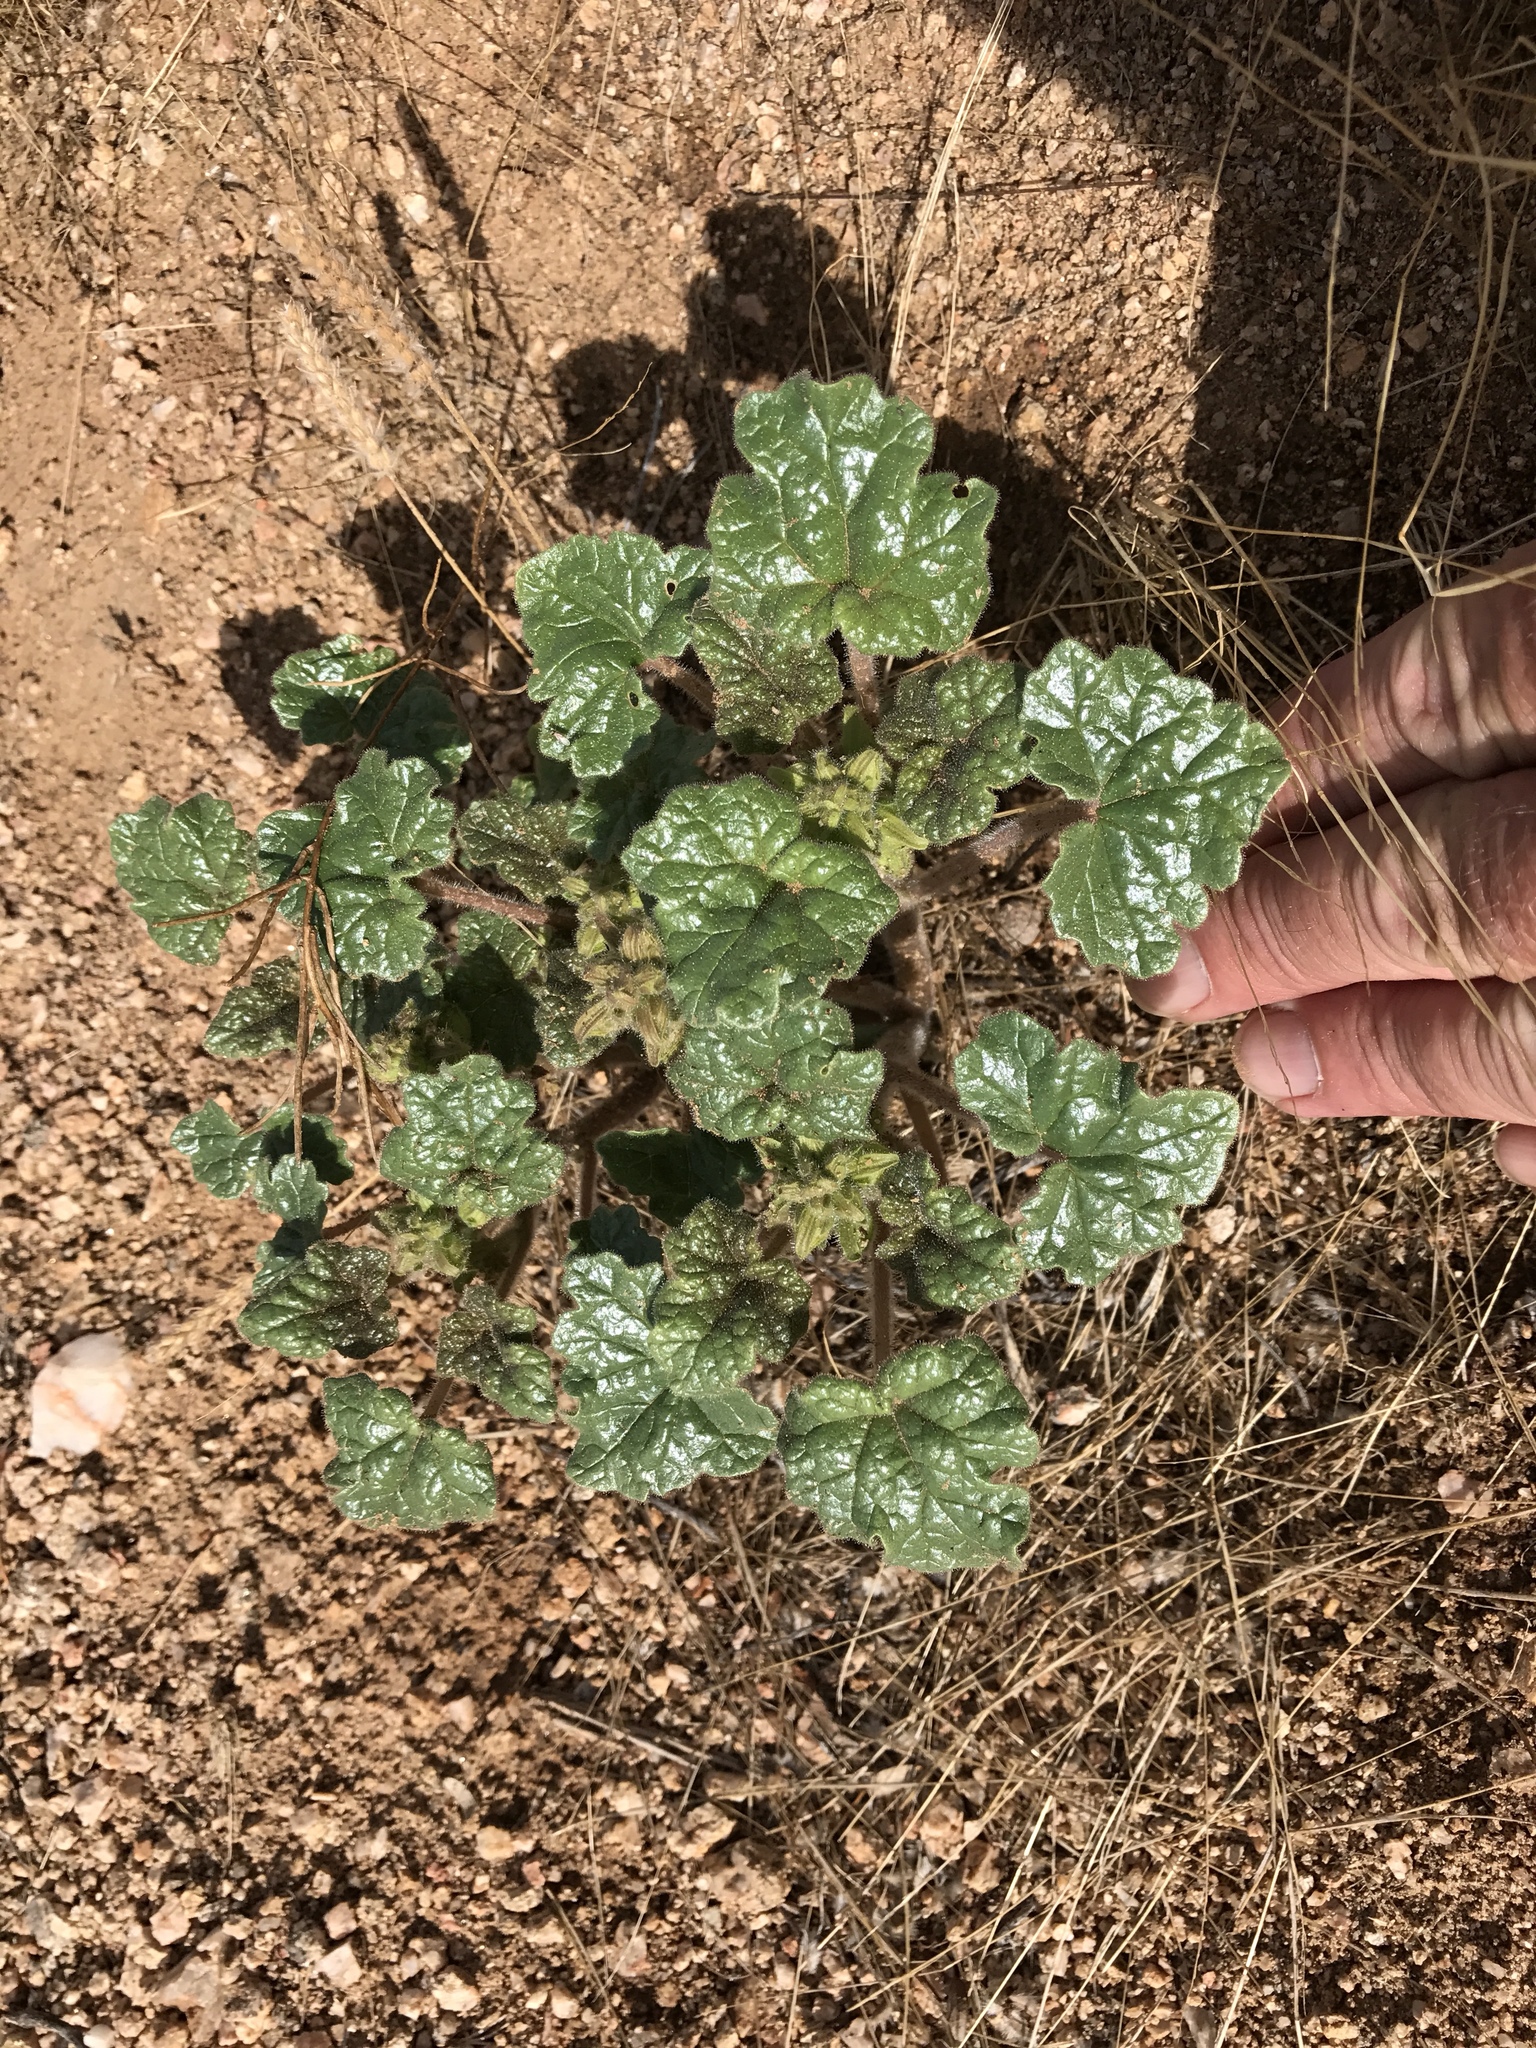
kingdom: Plantae
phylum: Tracheophyta
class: Magnoliopsida
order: Lamiales
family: Martyniaceae
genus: Proboscidea
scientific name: Proboscidea althaeifolia
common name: Desert unicorn-plant
